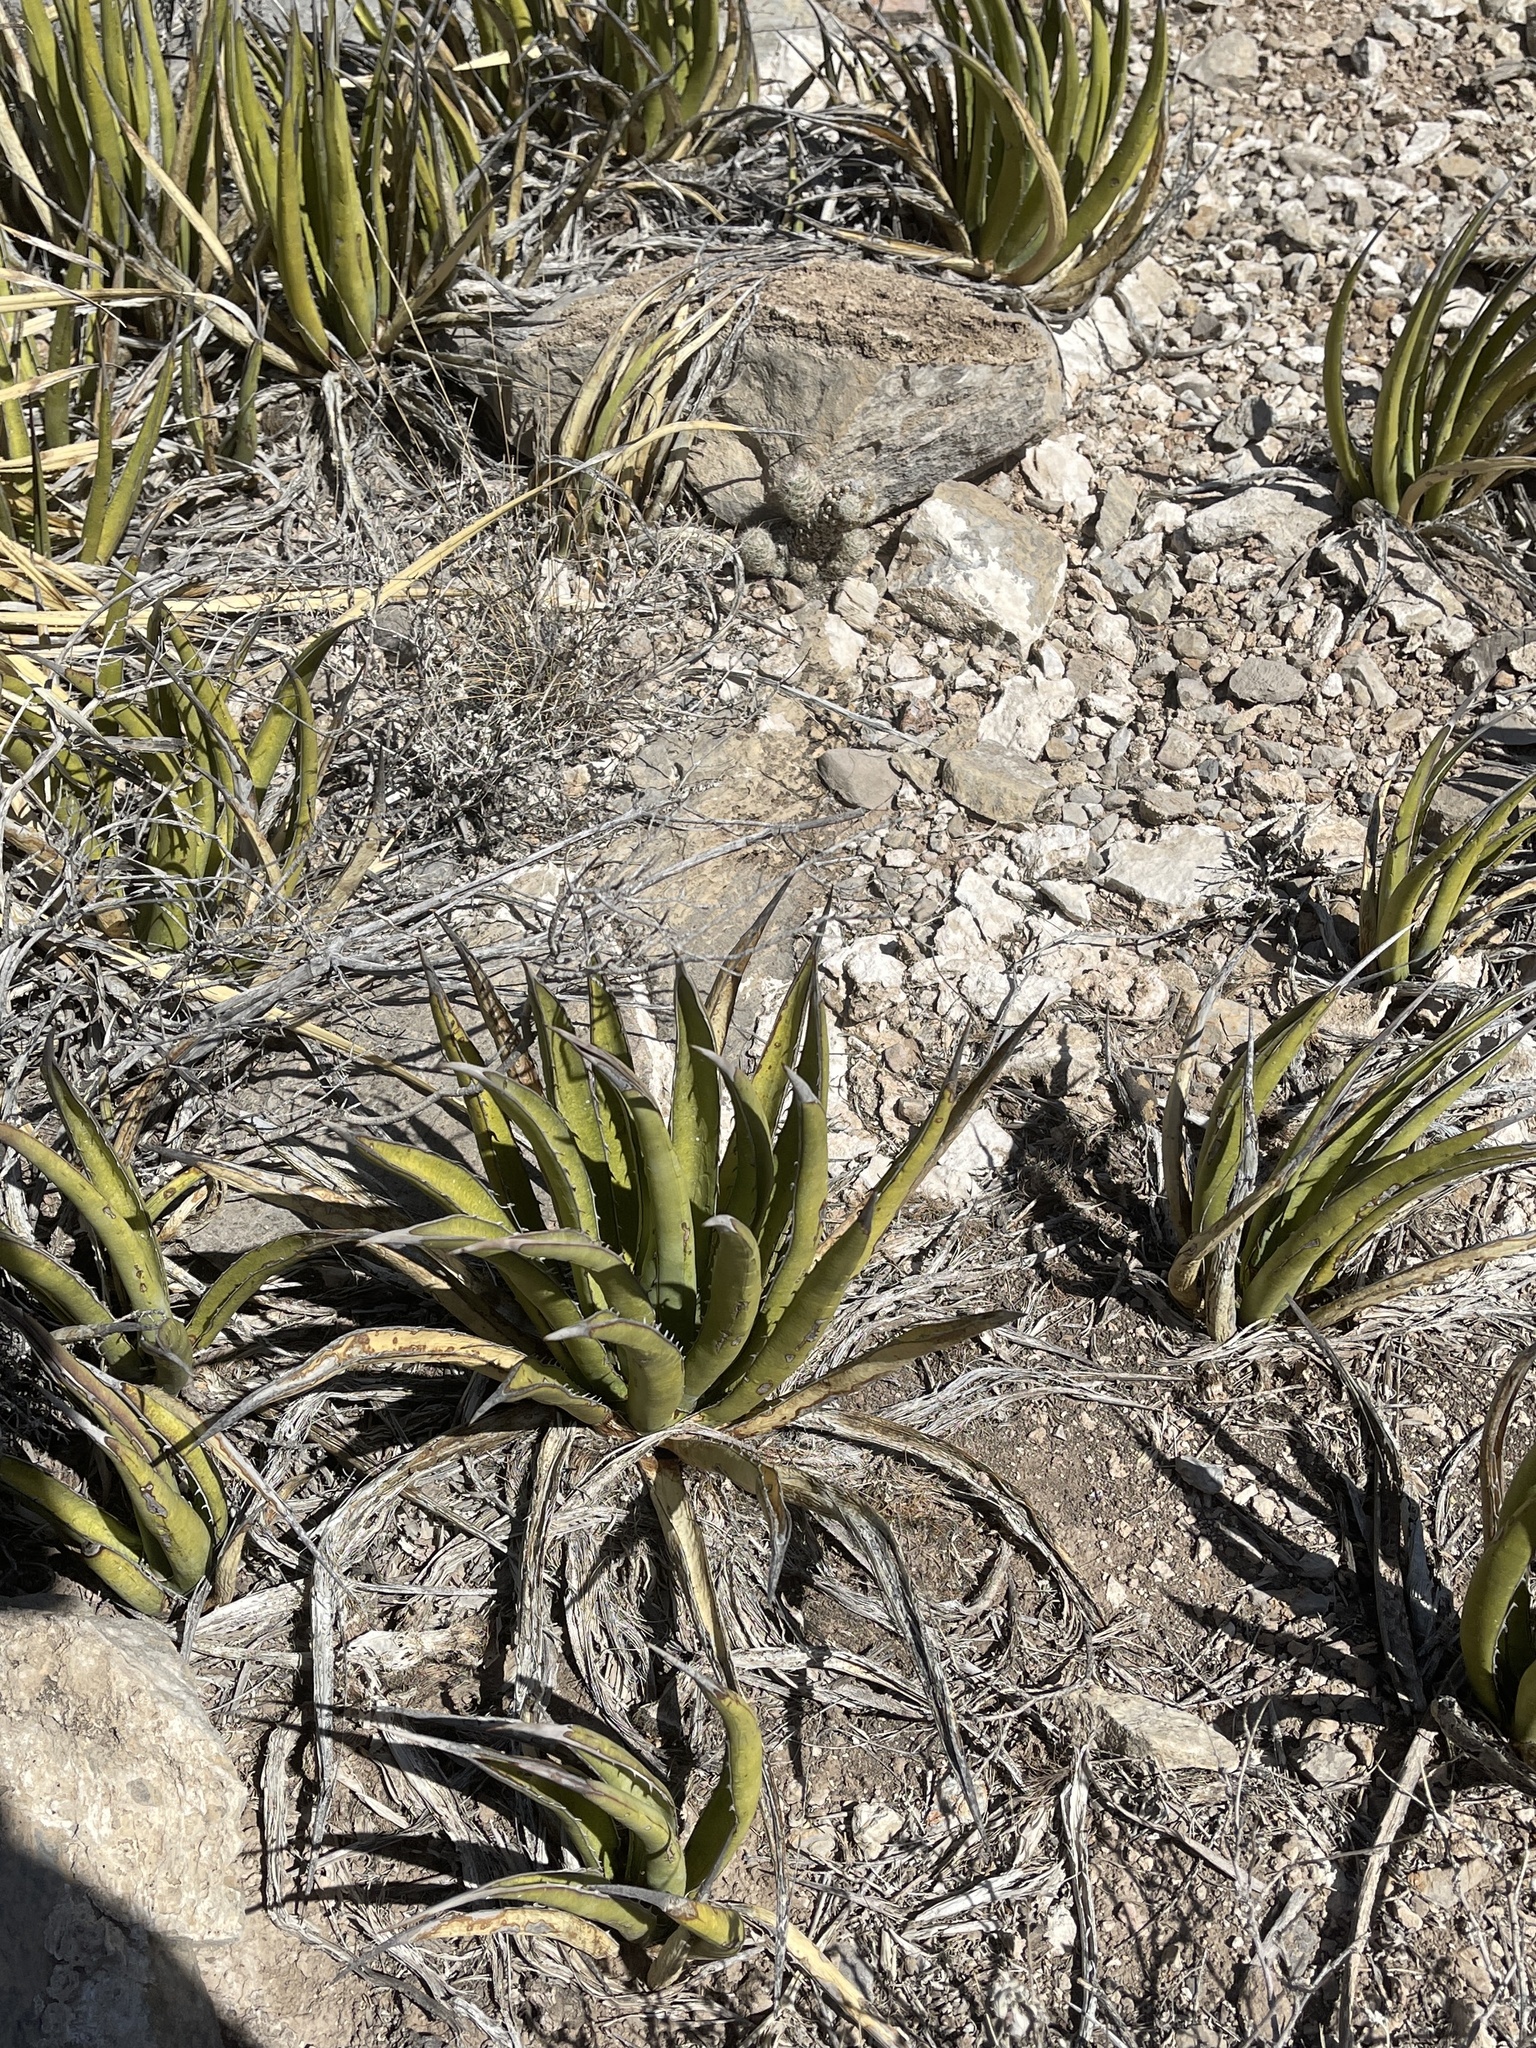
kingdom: Plantae
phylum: Tracheophyta
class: Liliopsida
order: Asparagales
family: Asparagaceae
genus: Agave
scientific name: Agave lechuguilla
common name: Lecheguilla agave
